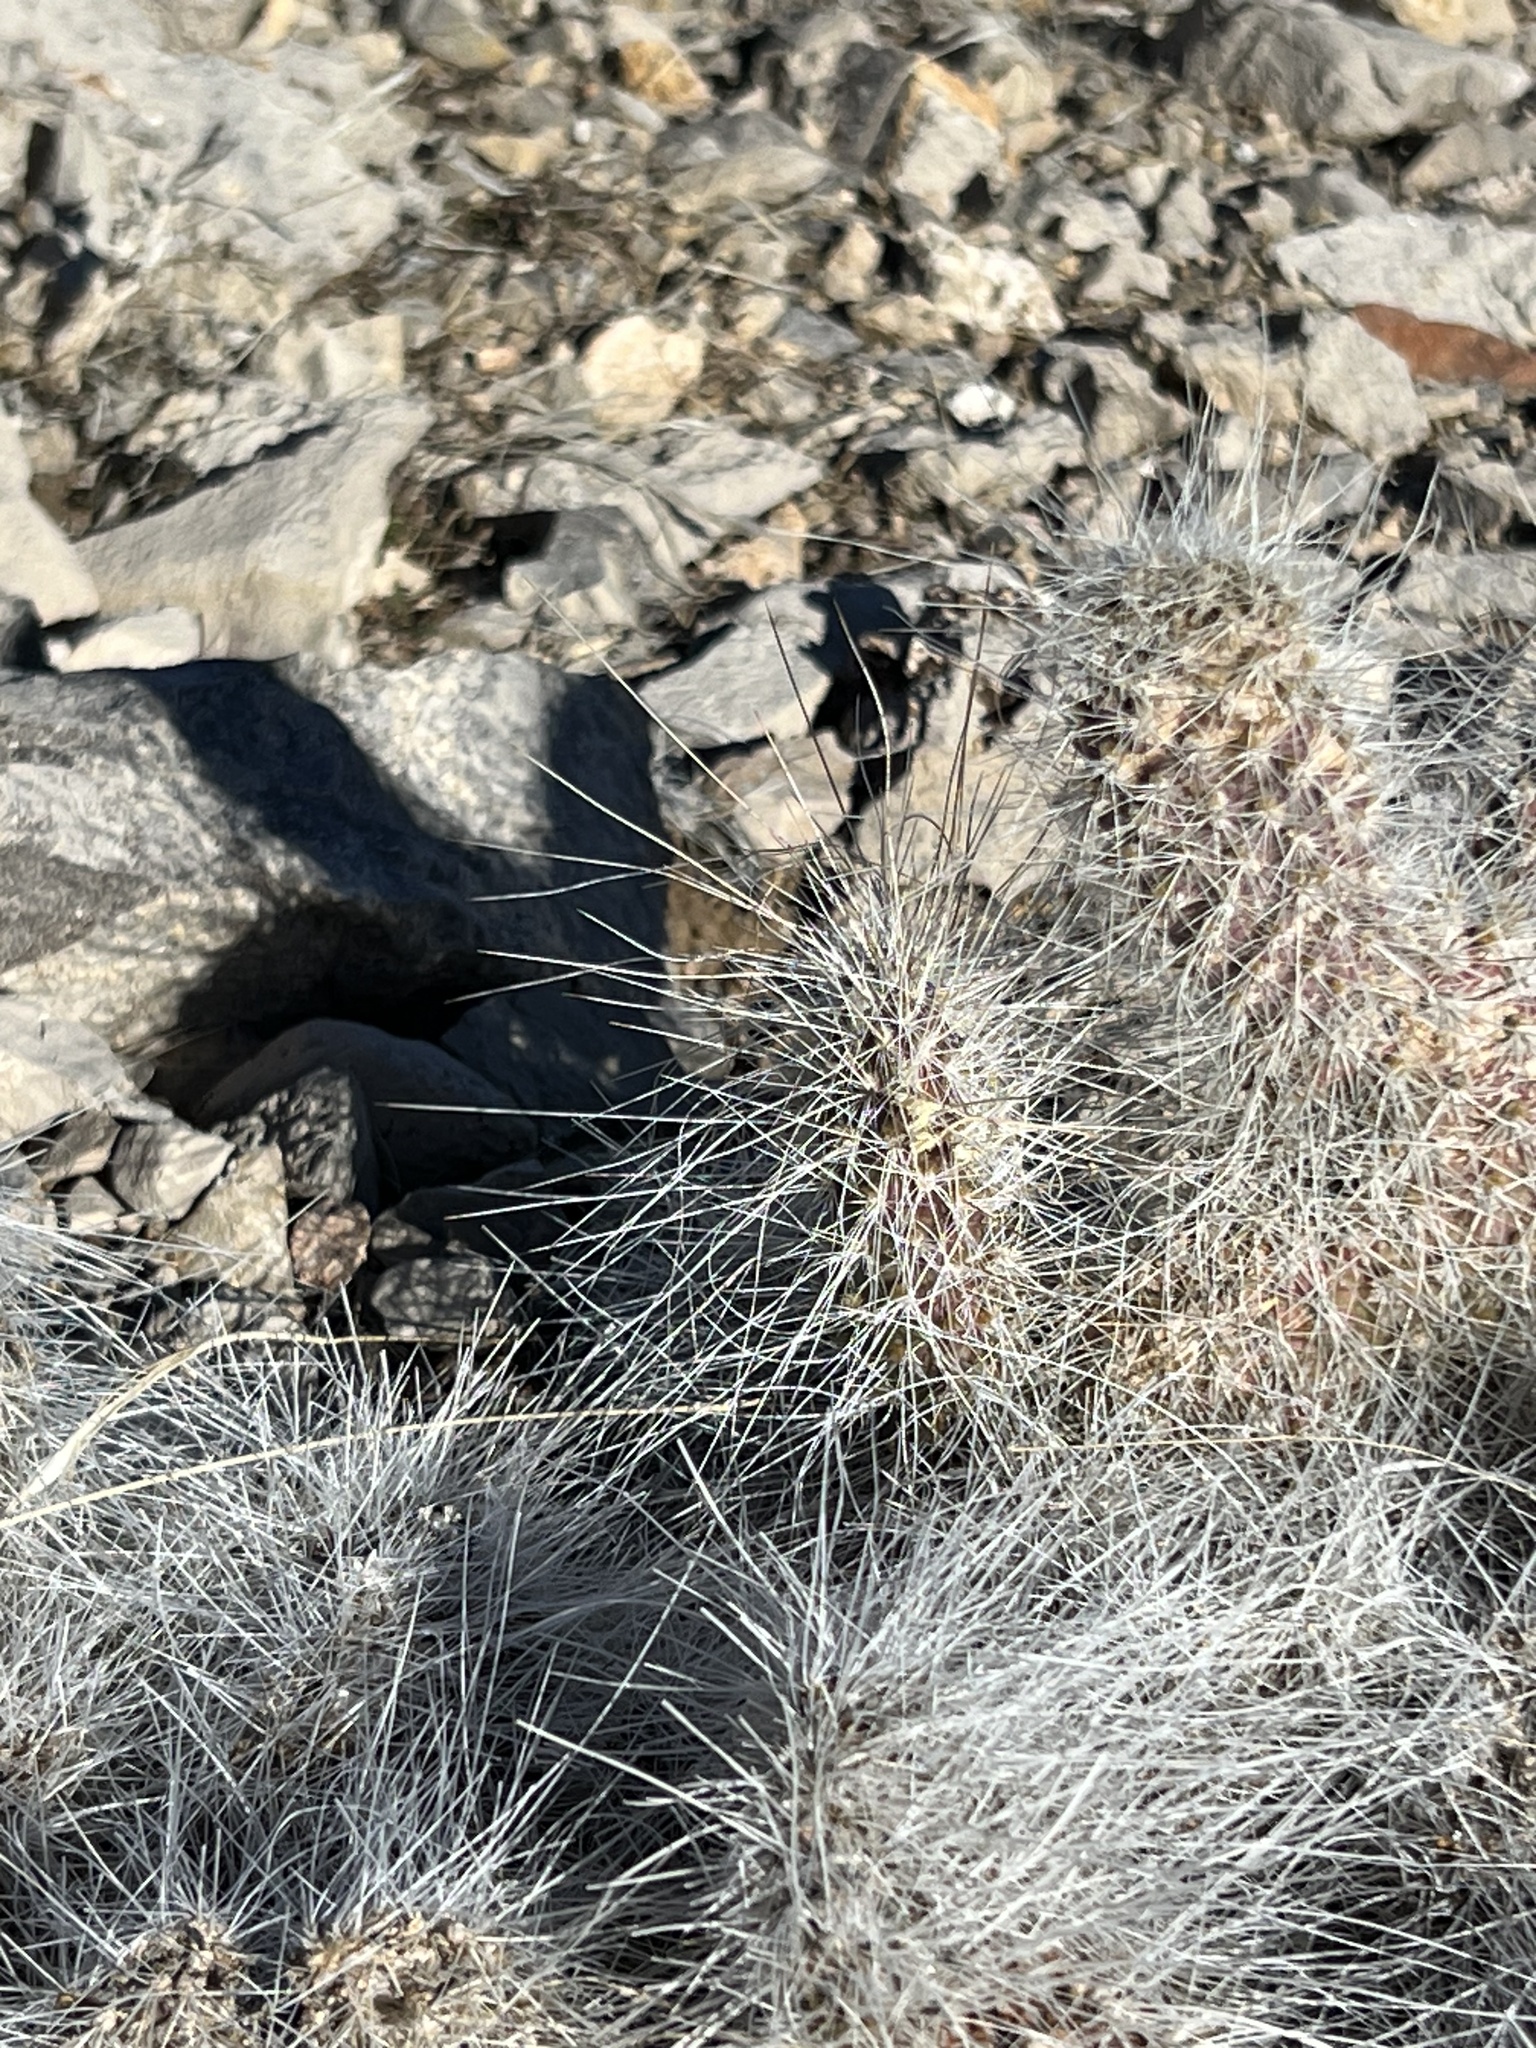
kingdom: Plantae
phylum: Tracheophyta
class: Magnoliopsida
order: Caryophyllales
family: Cactaceae
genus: Opuntia
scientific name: Opuntia polyacantha
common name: Plains prickly-pear
